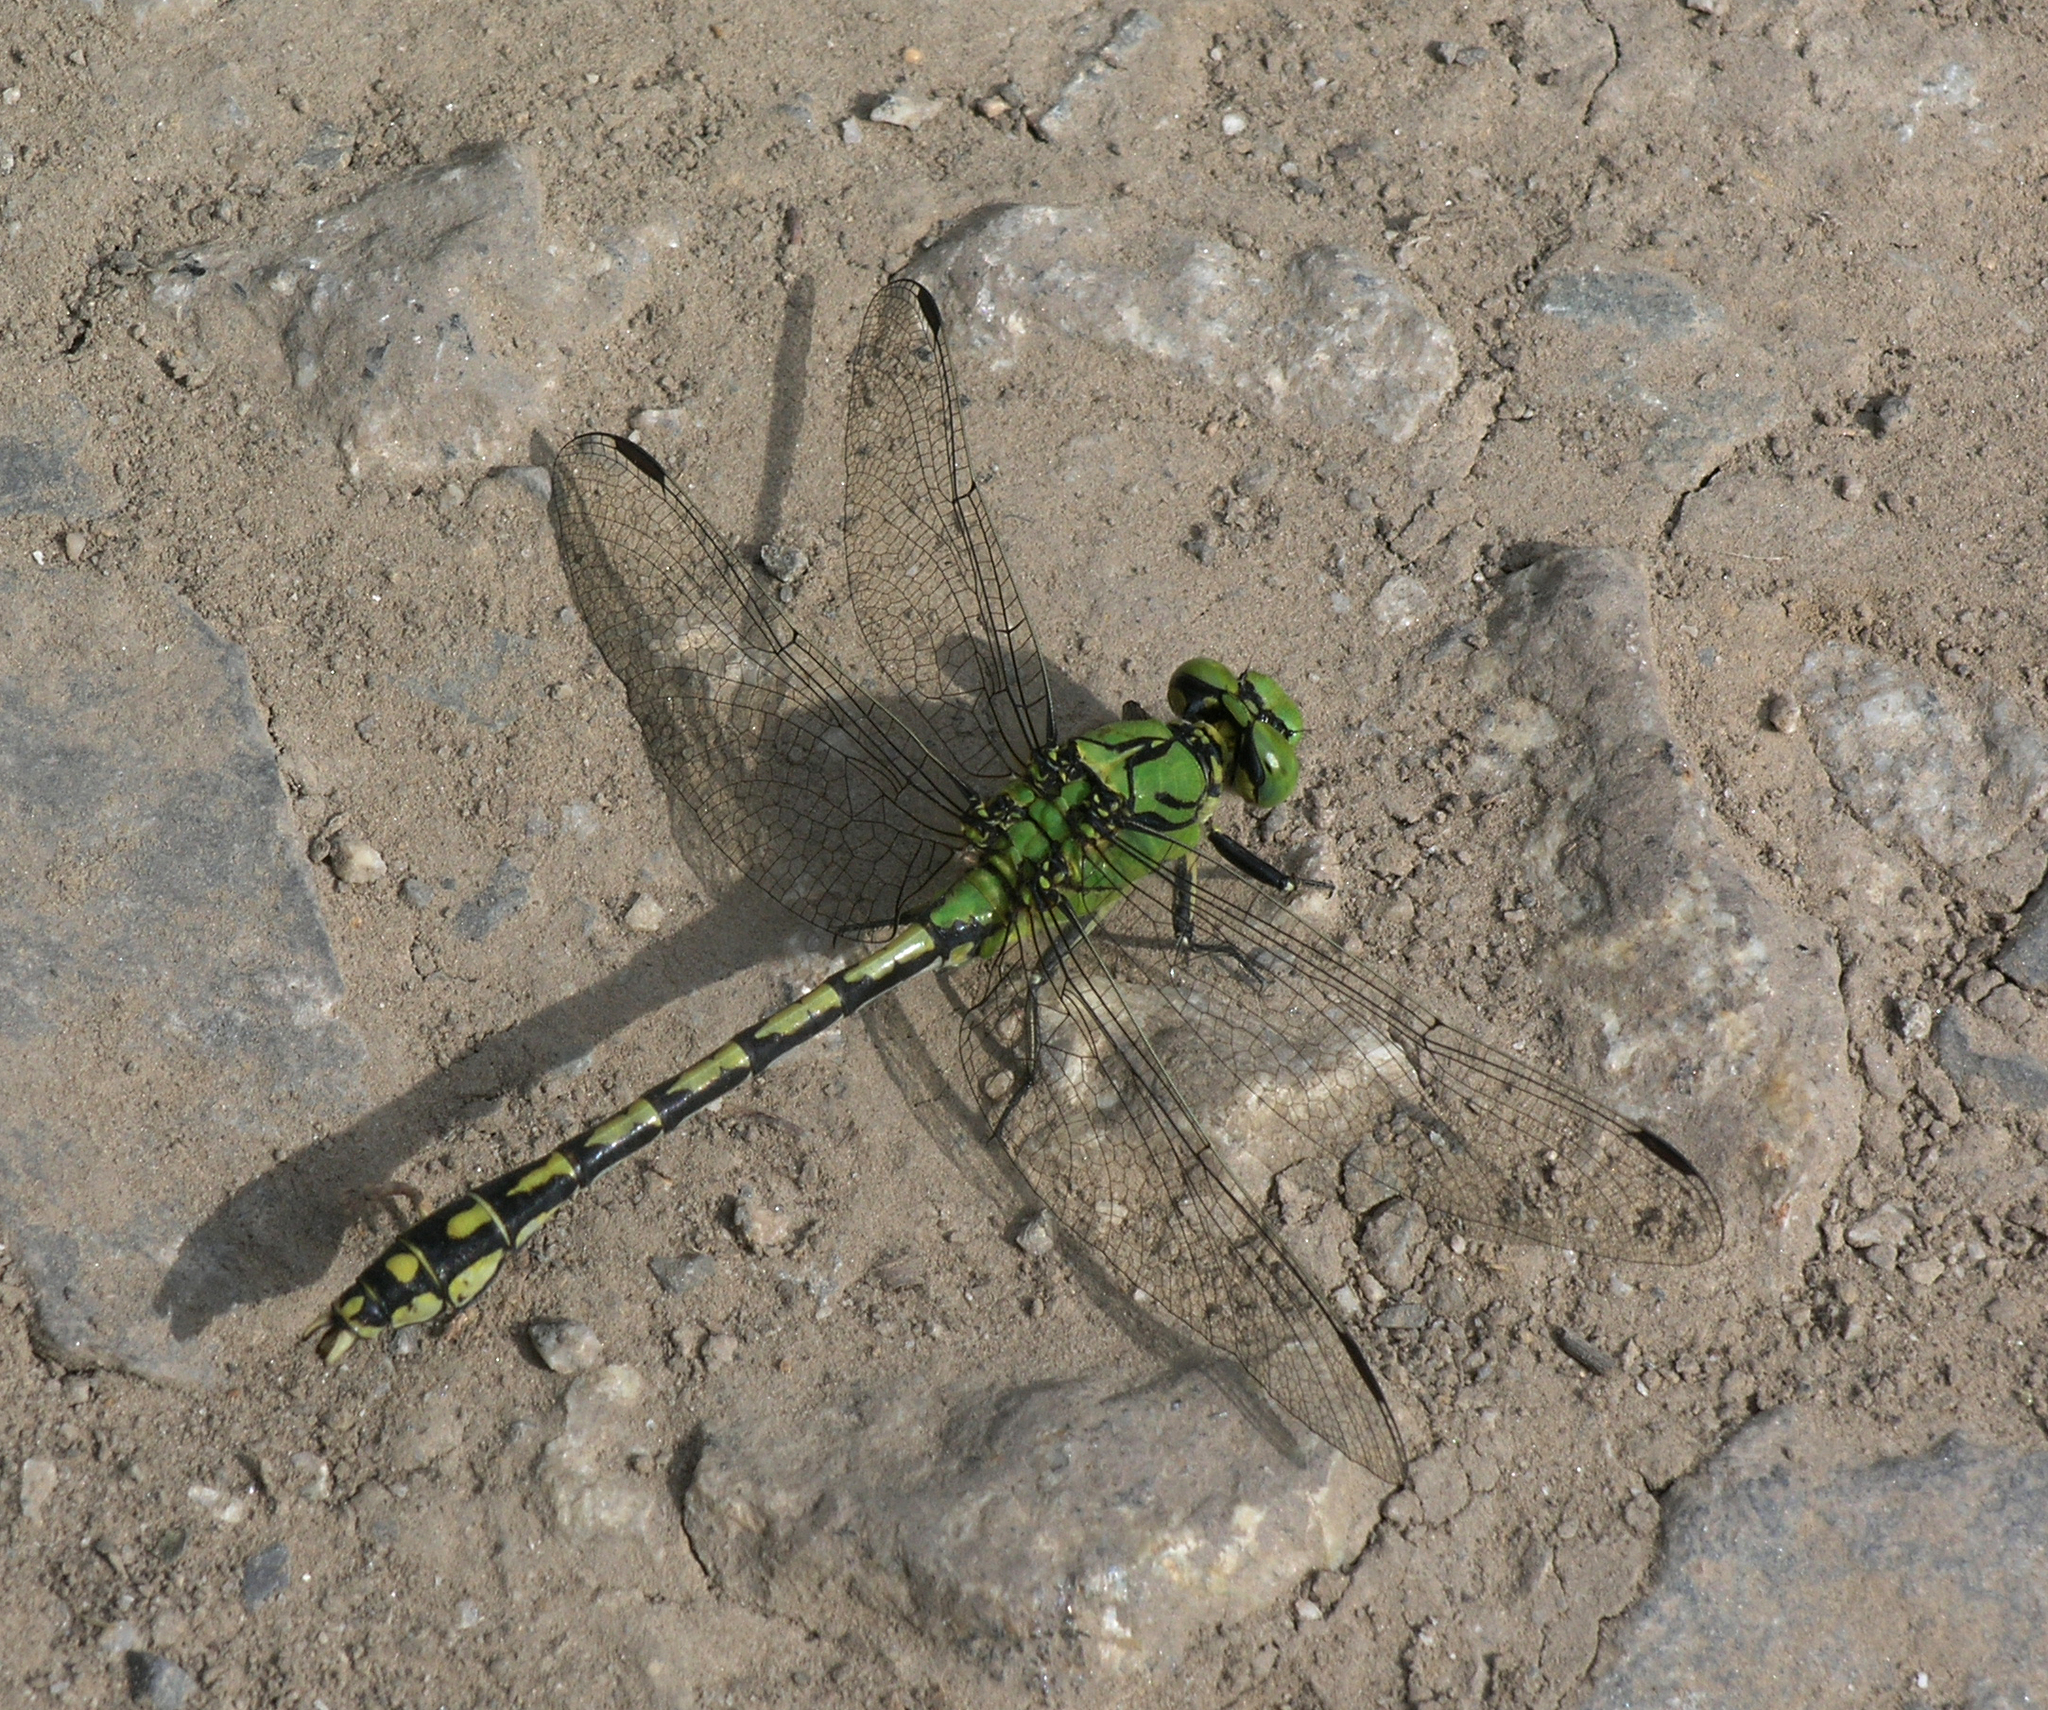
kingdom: Animalia
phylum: Arthropoda
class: Insecta
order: Odonata
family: Gomphidae
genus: Ophiogomphus
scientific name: Ophiogomphus cecilia
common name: Green snaketail
